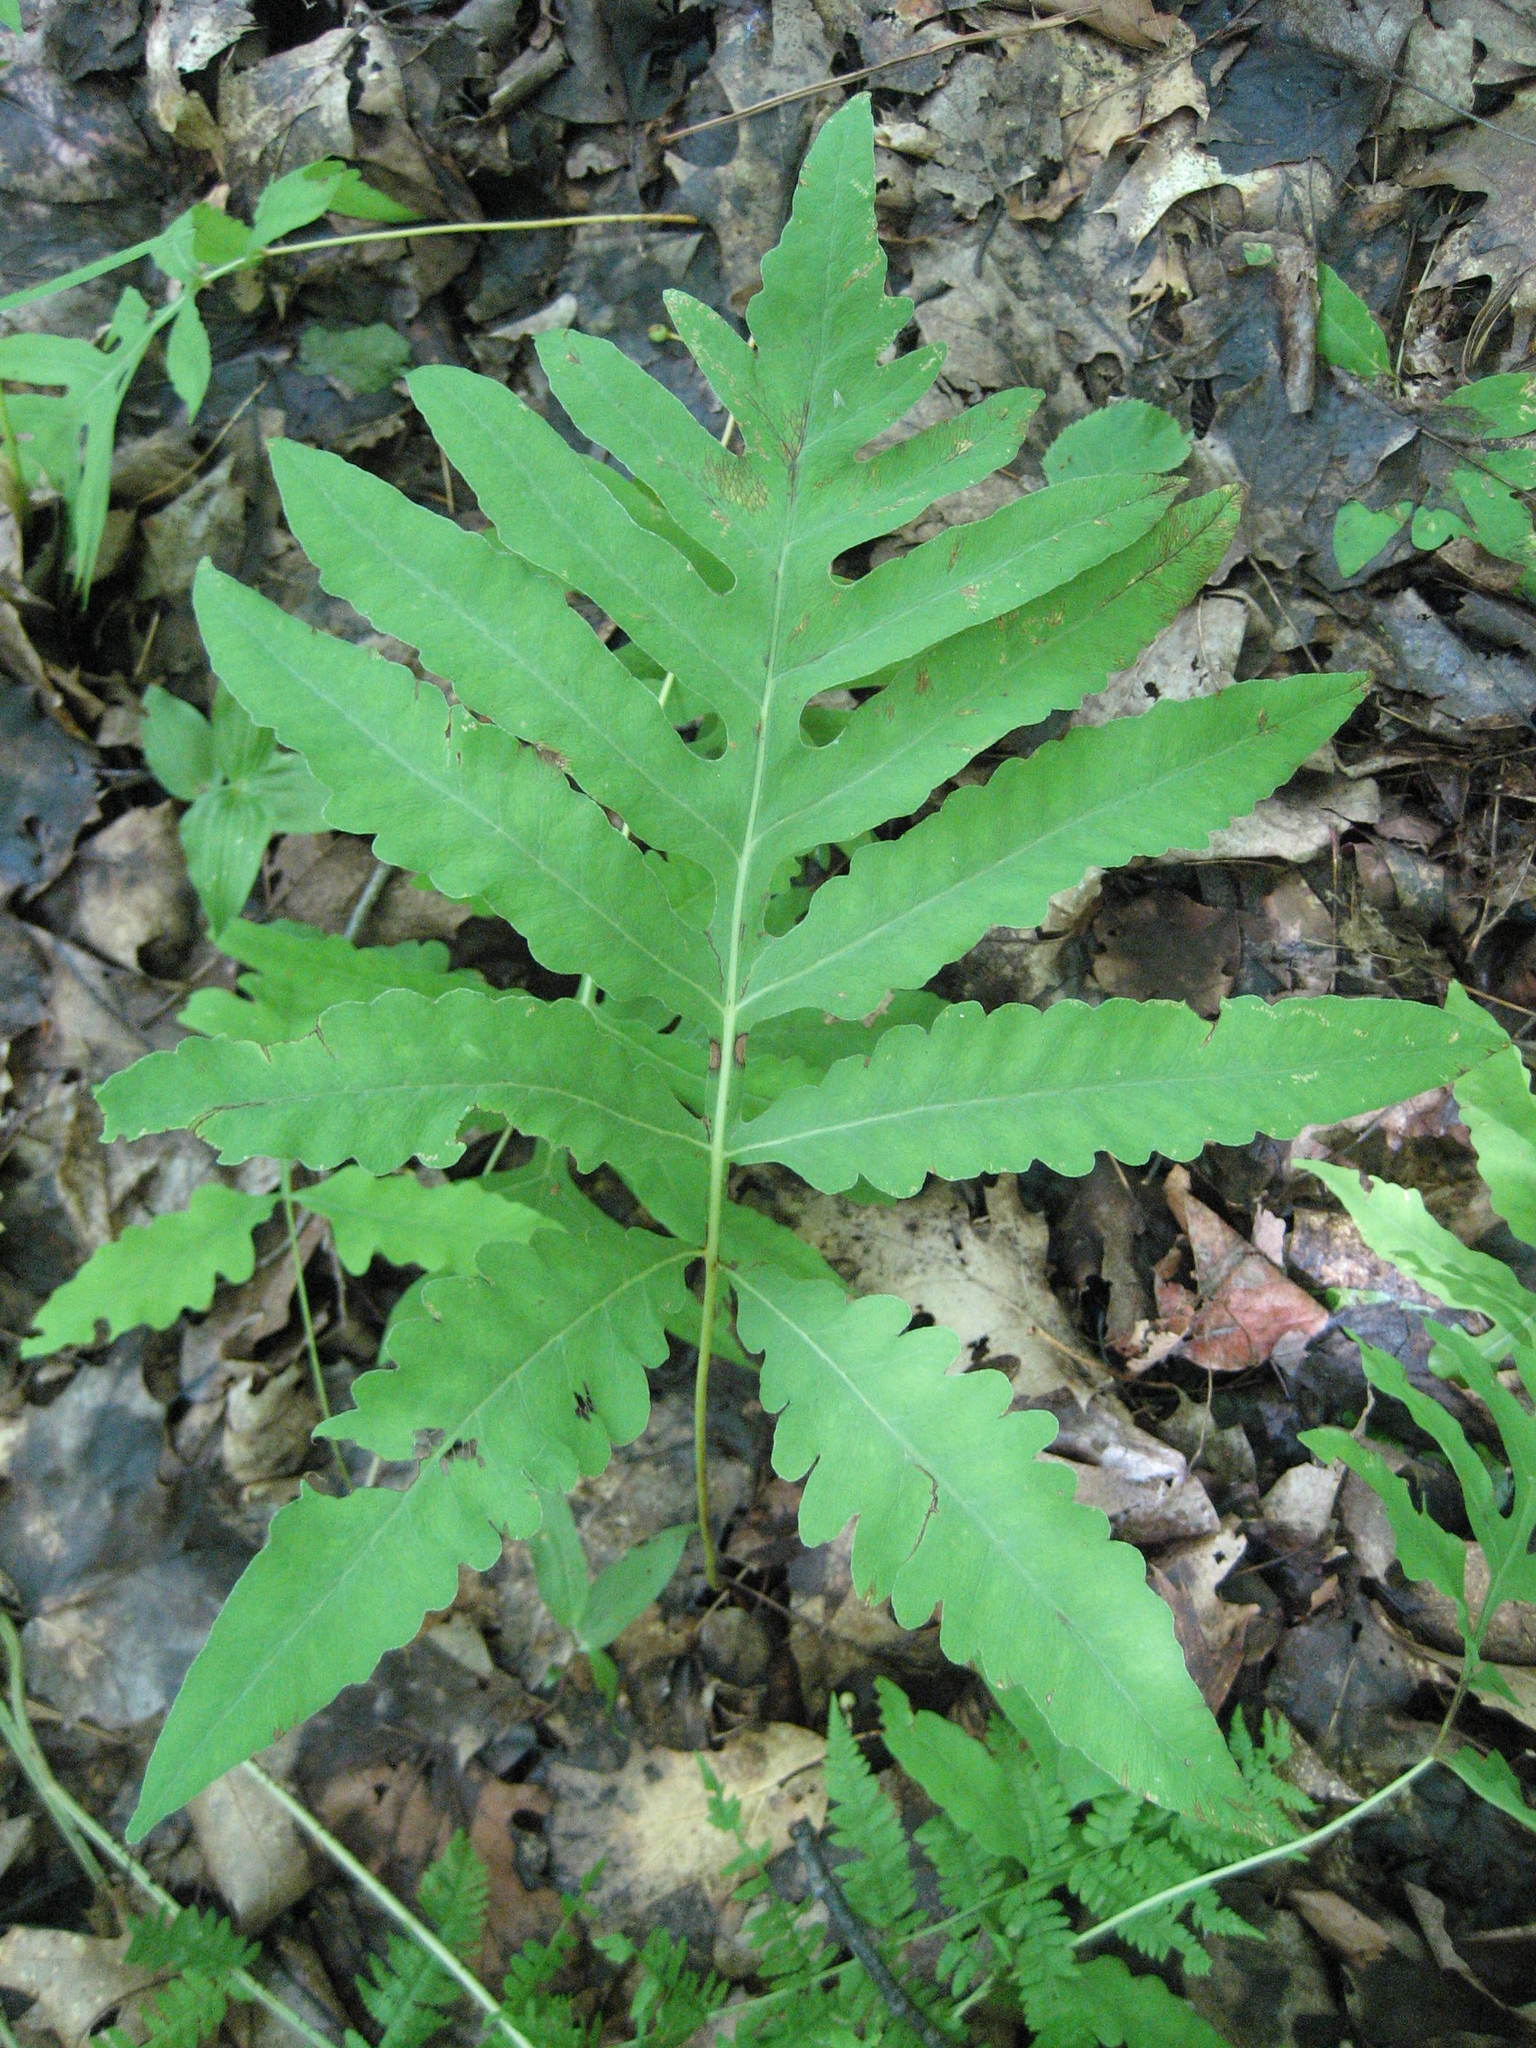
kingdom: Plantae
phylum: Tracheophyta
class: Polypodiopsida
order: Polypodiales
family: Onocleaceae
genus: Onoclea
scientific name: Onoclea sensibilis
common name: Sensitive fern
